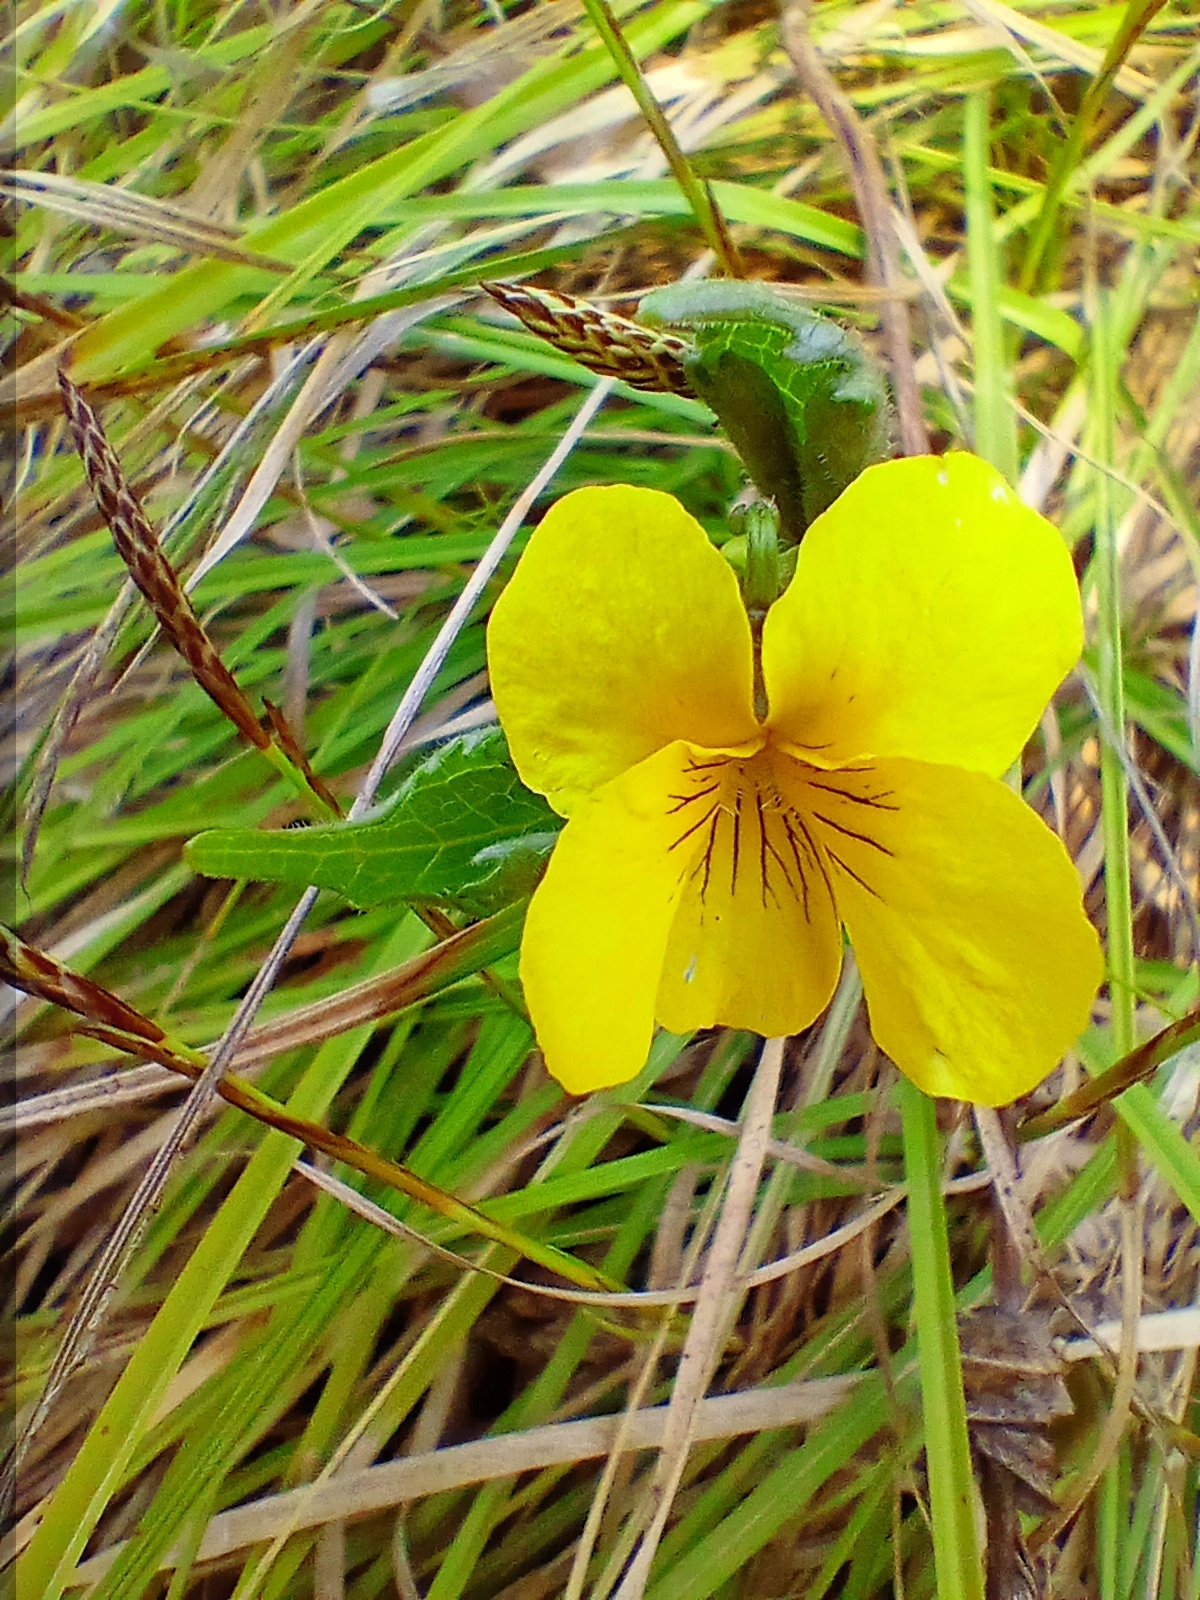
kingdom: Plantae
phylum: Tracheophyta
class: Magnoliopsida
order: Malpighiales
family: Violaceae
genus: Viola
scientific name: Viola uniflora
